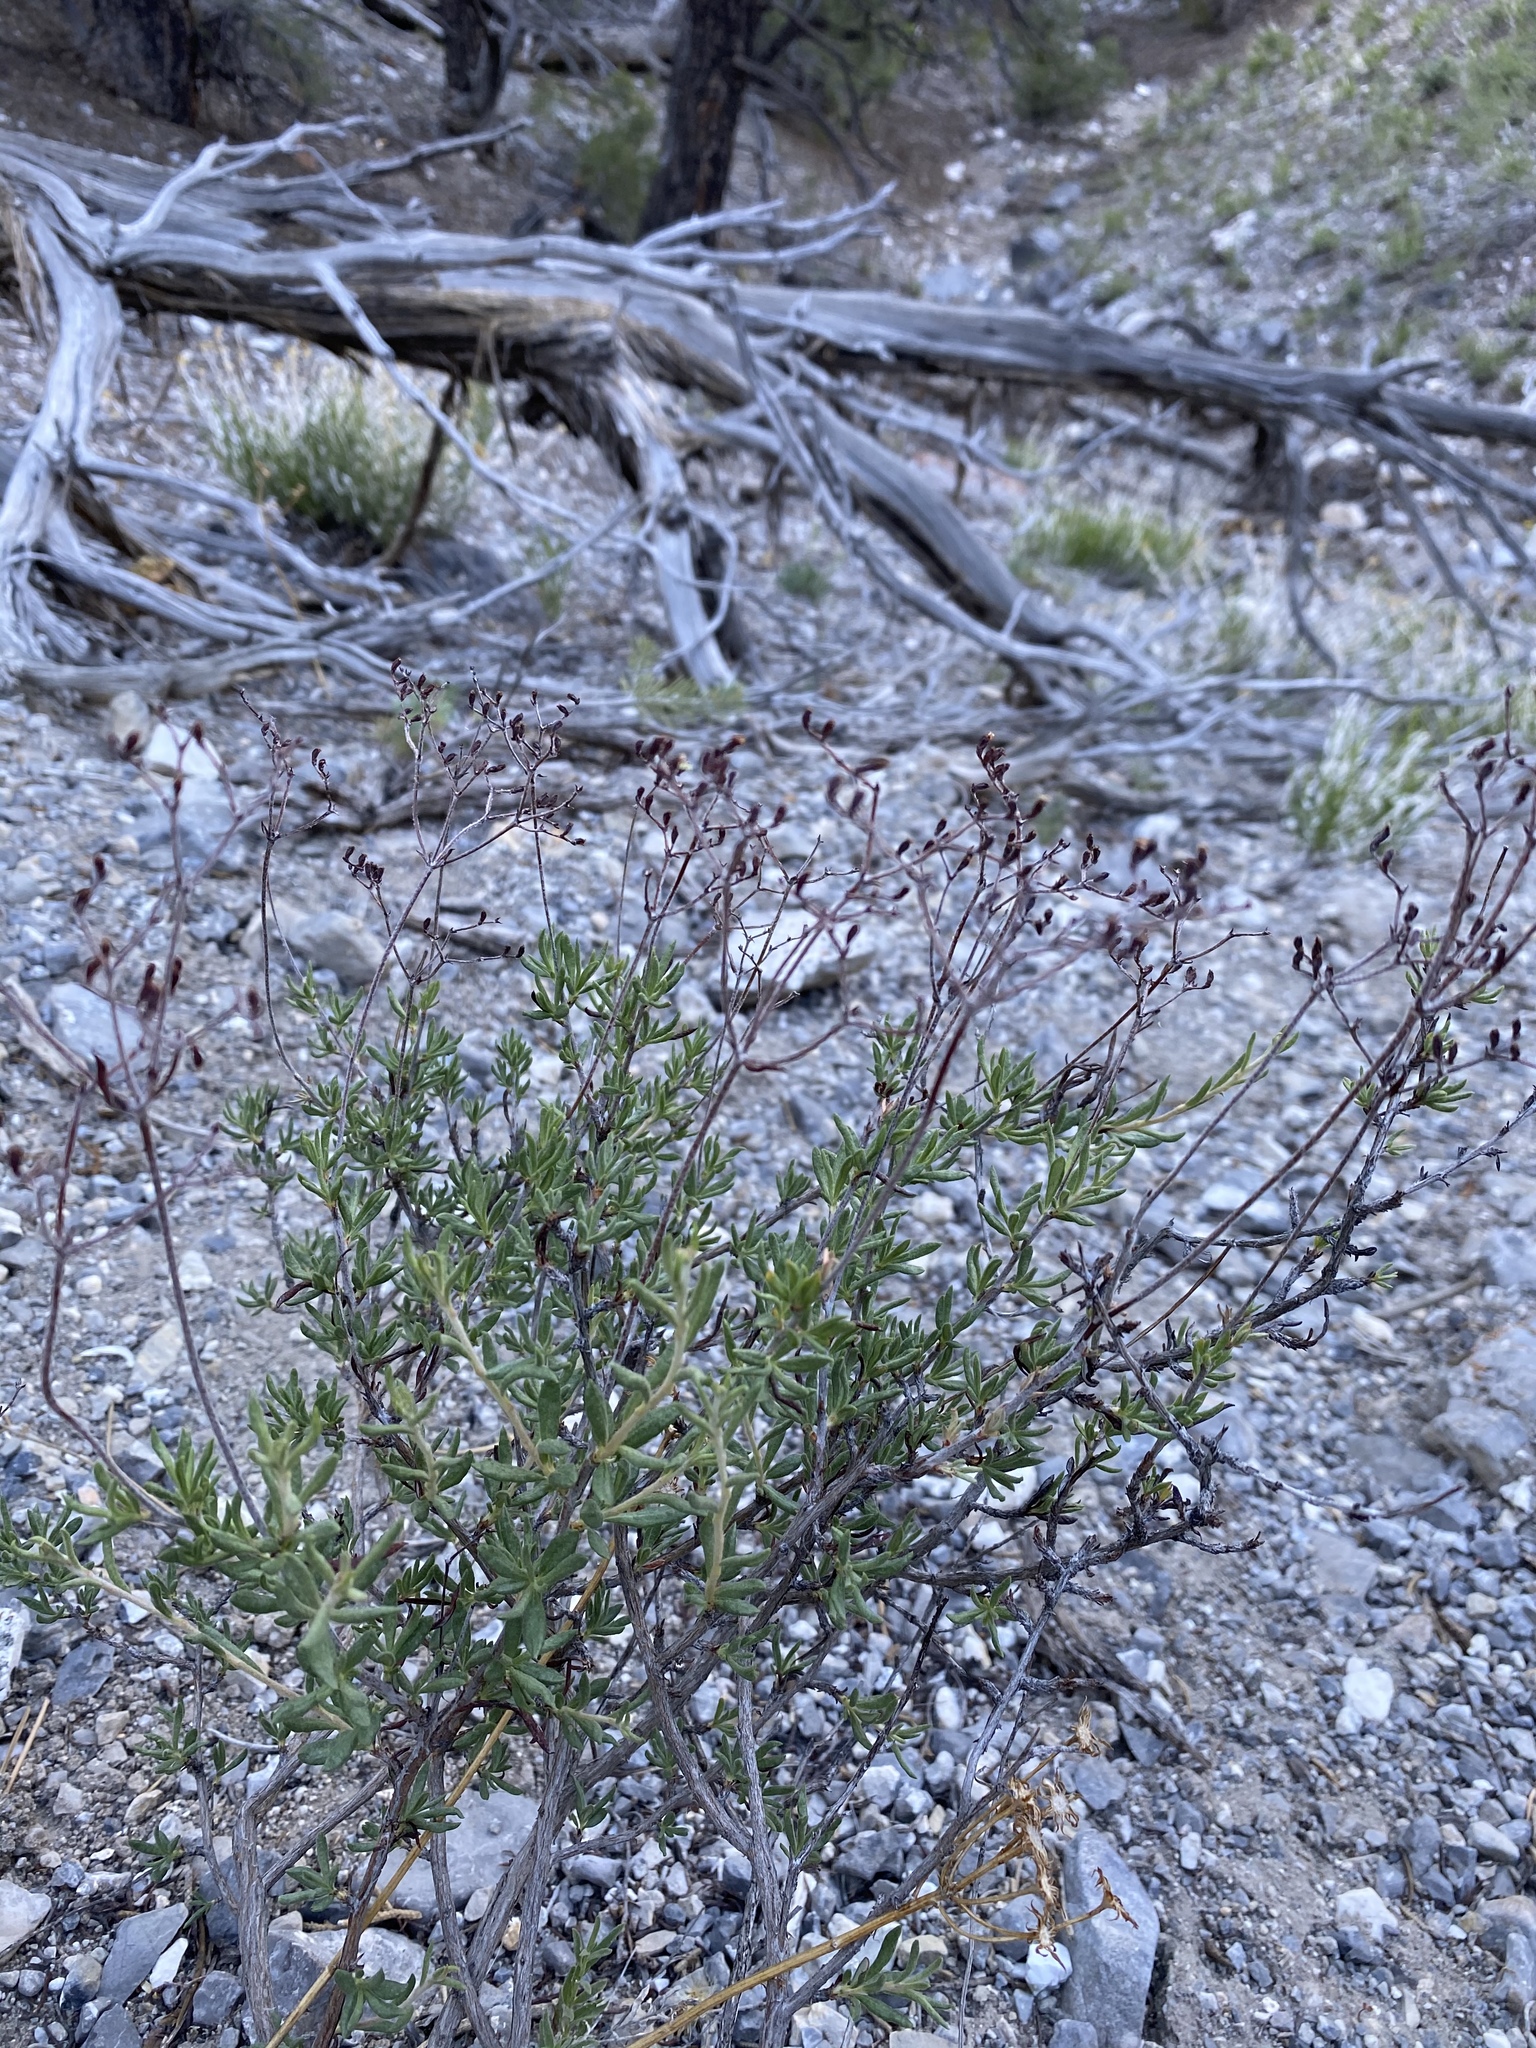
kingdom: Plantae
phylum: Tracheophyta
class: Magnoliopsida
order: Caryophyllales
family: Polygonaceae
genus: Eriogonum
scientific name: Eriogonum microtheca
